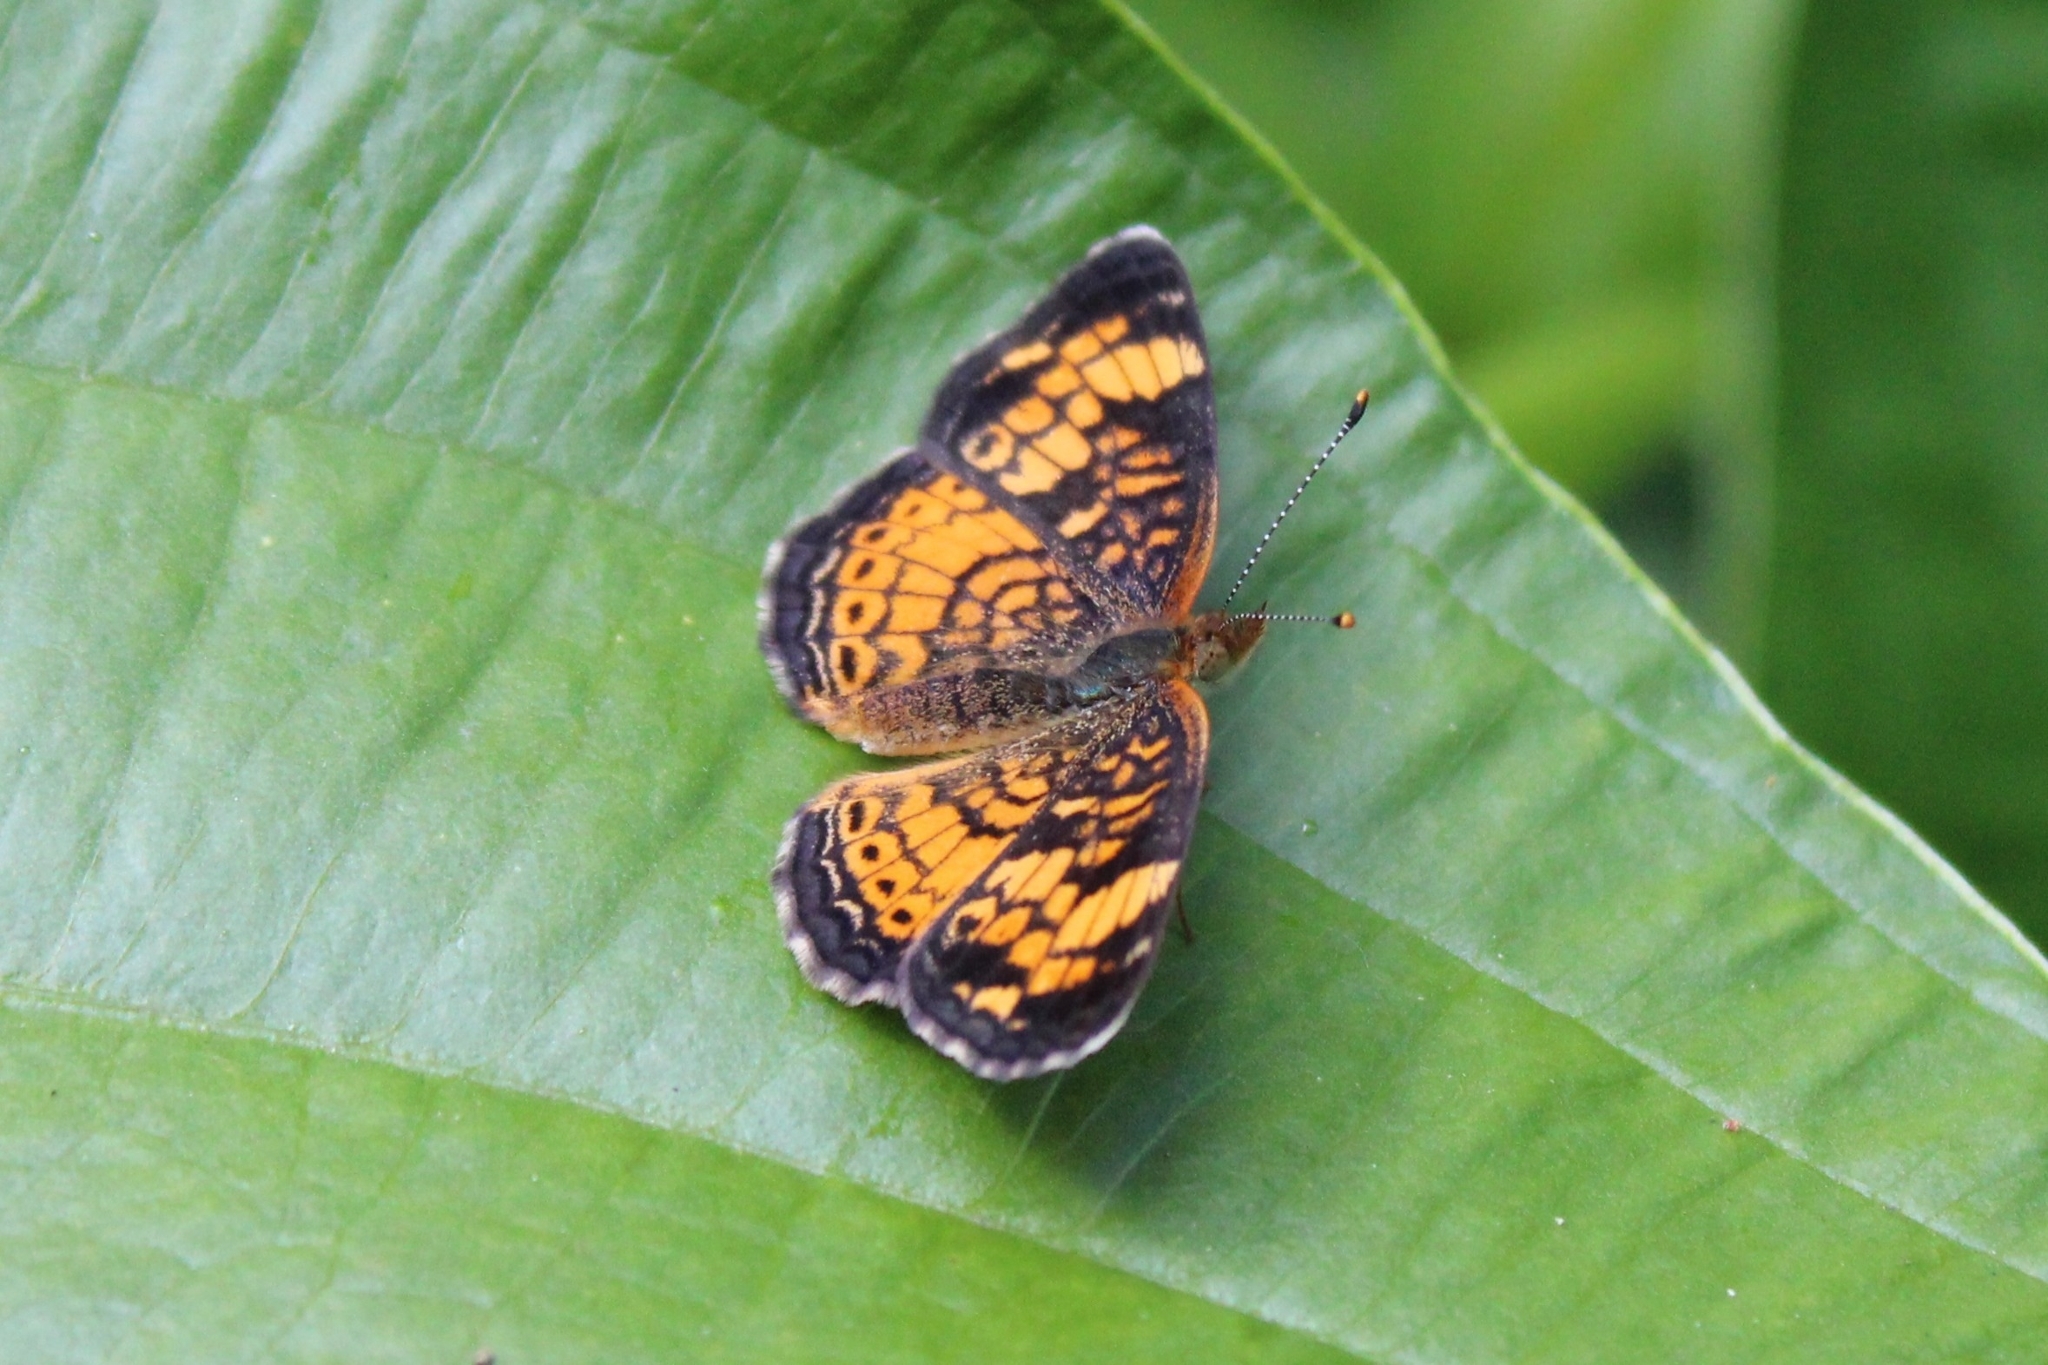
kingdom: Animalia
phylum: Arthropoda
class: Insecta
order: Lepidoptera
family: Nymphalidae
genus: Phyciodes
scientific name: Phyciodes tharos
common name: Pearl crescent
